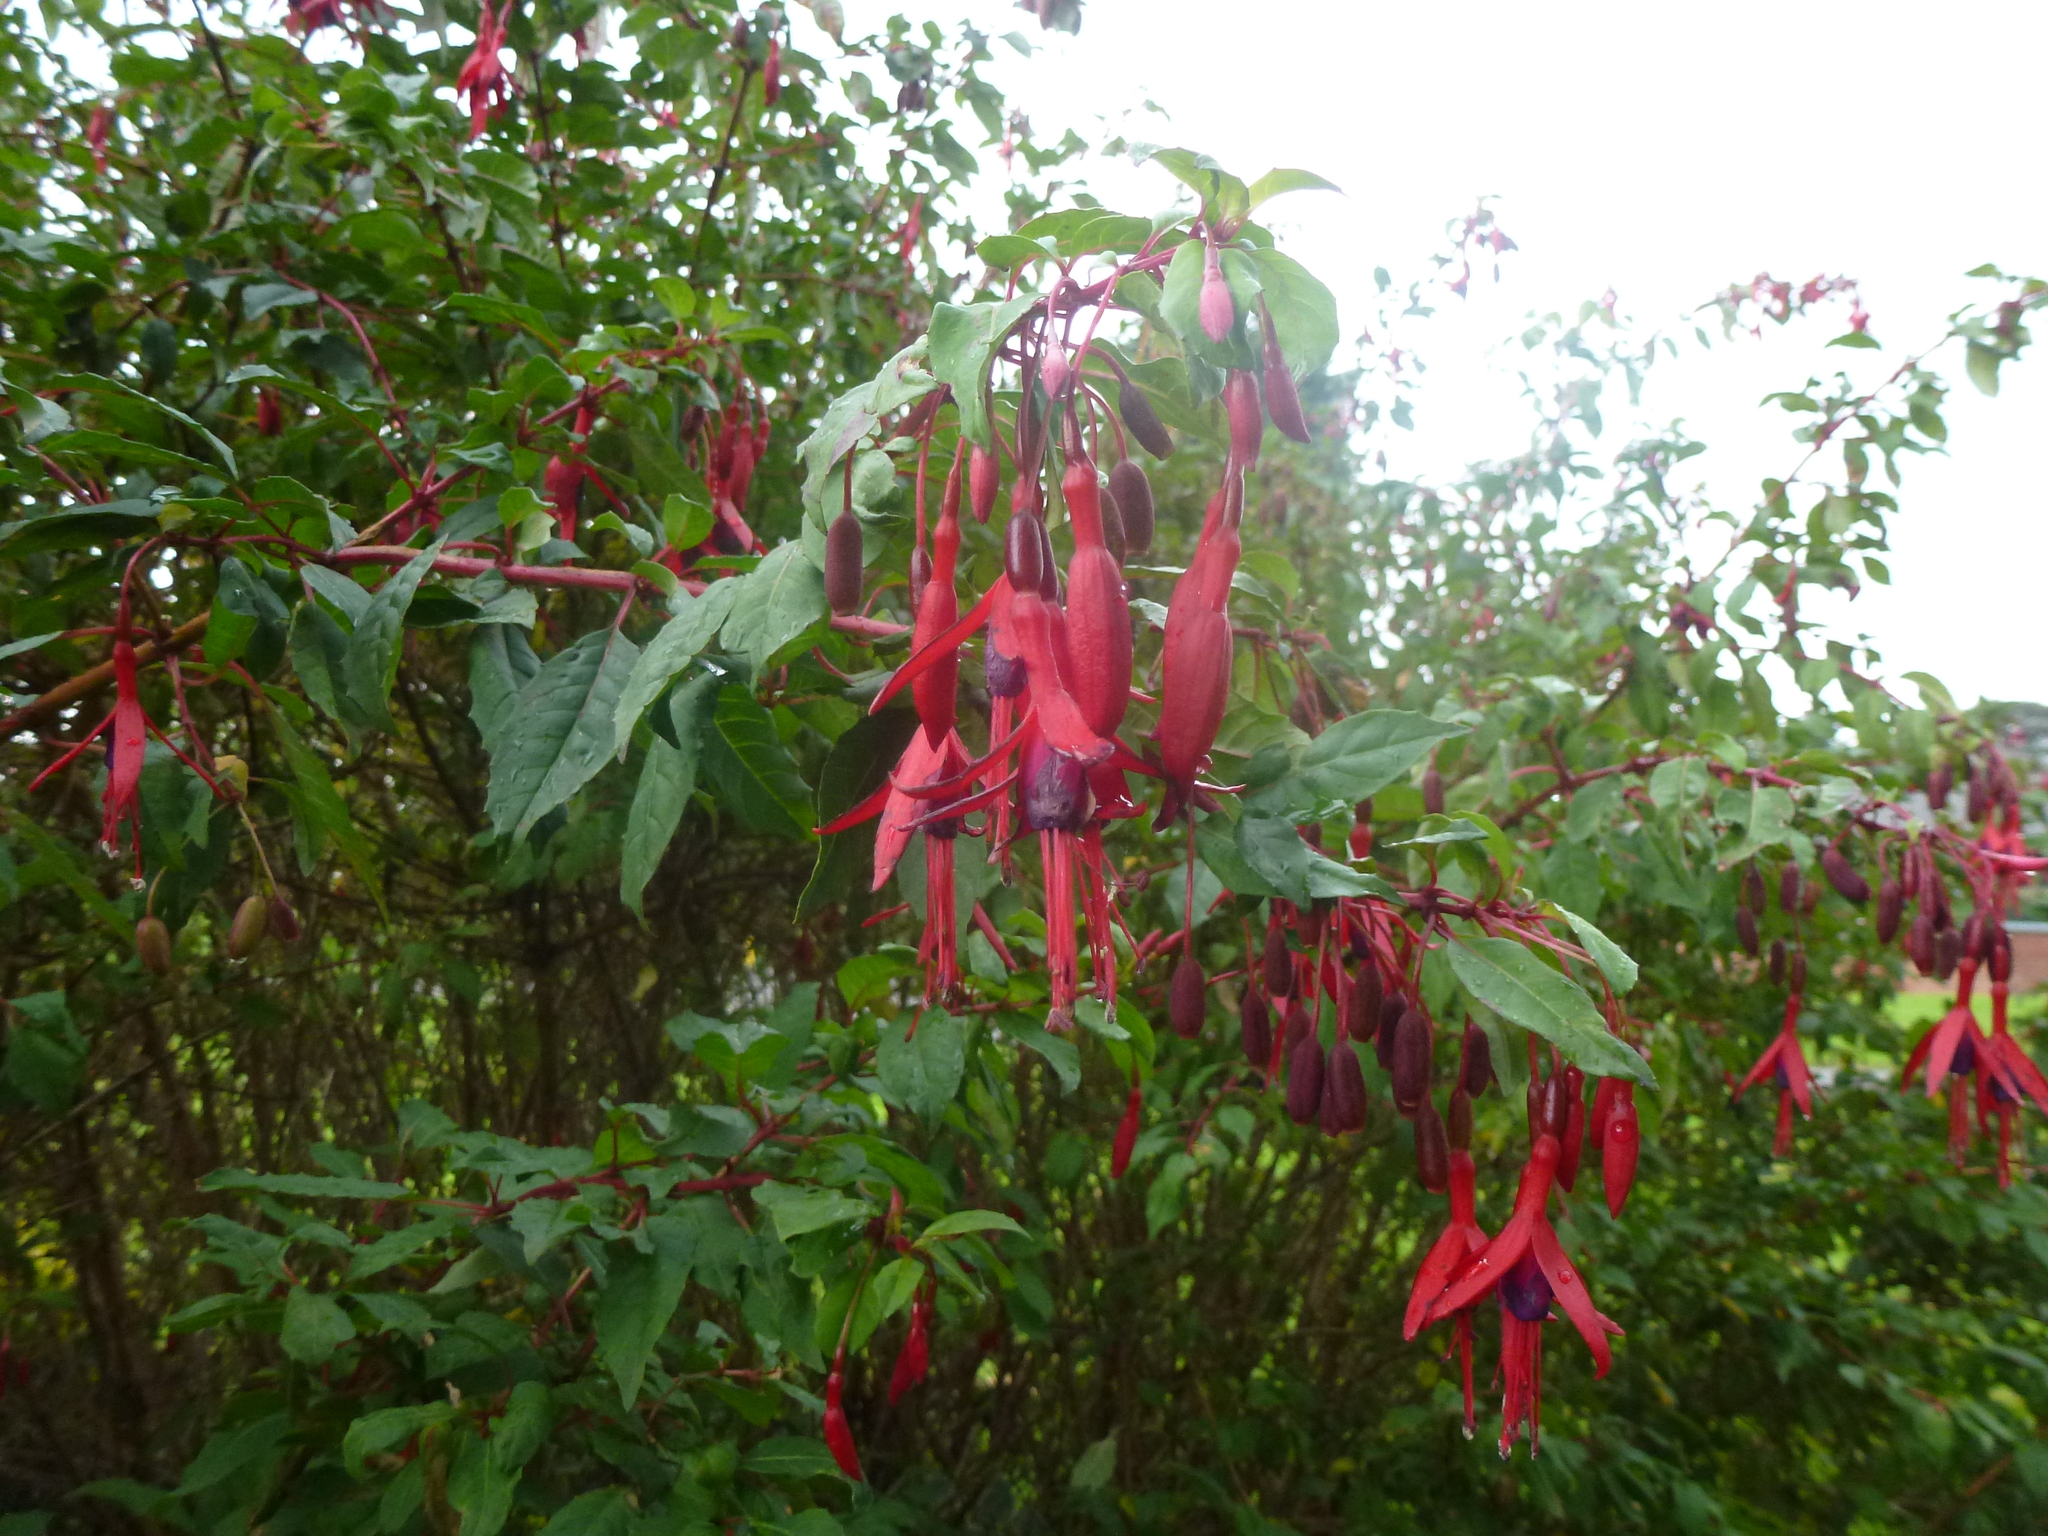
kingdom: Plantae
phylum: Tracheophyta
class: Magnoliopsida
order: Myrtales
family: Onagraceae
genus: Fuchsia
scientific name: Fuchsia magellanica
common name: Hardy fuchsia
